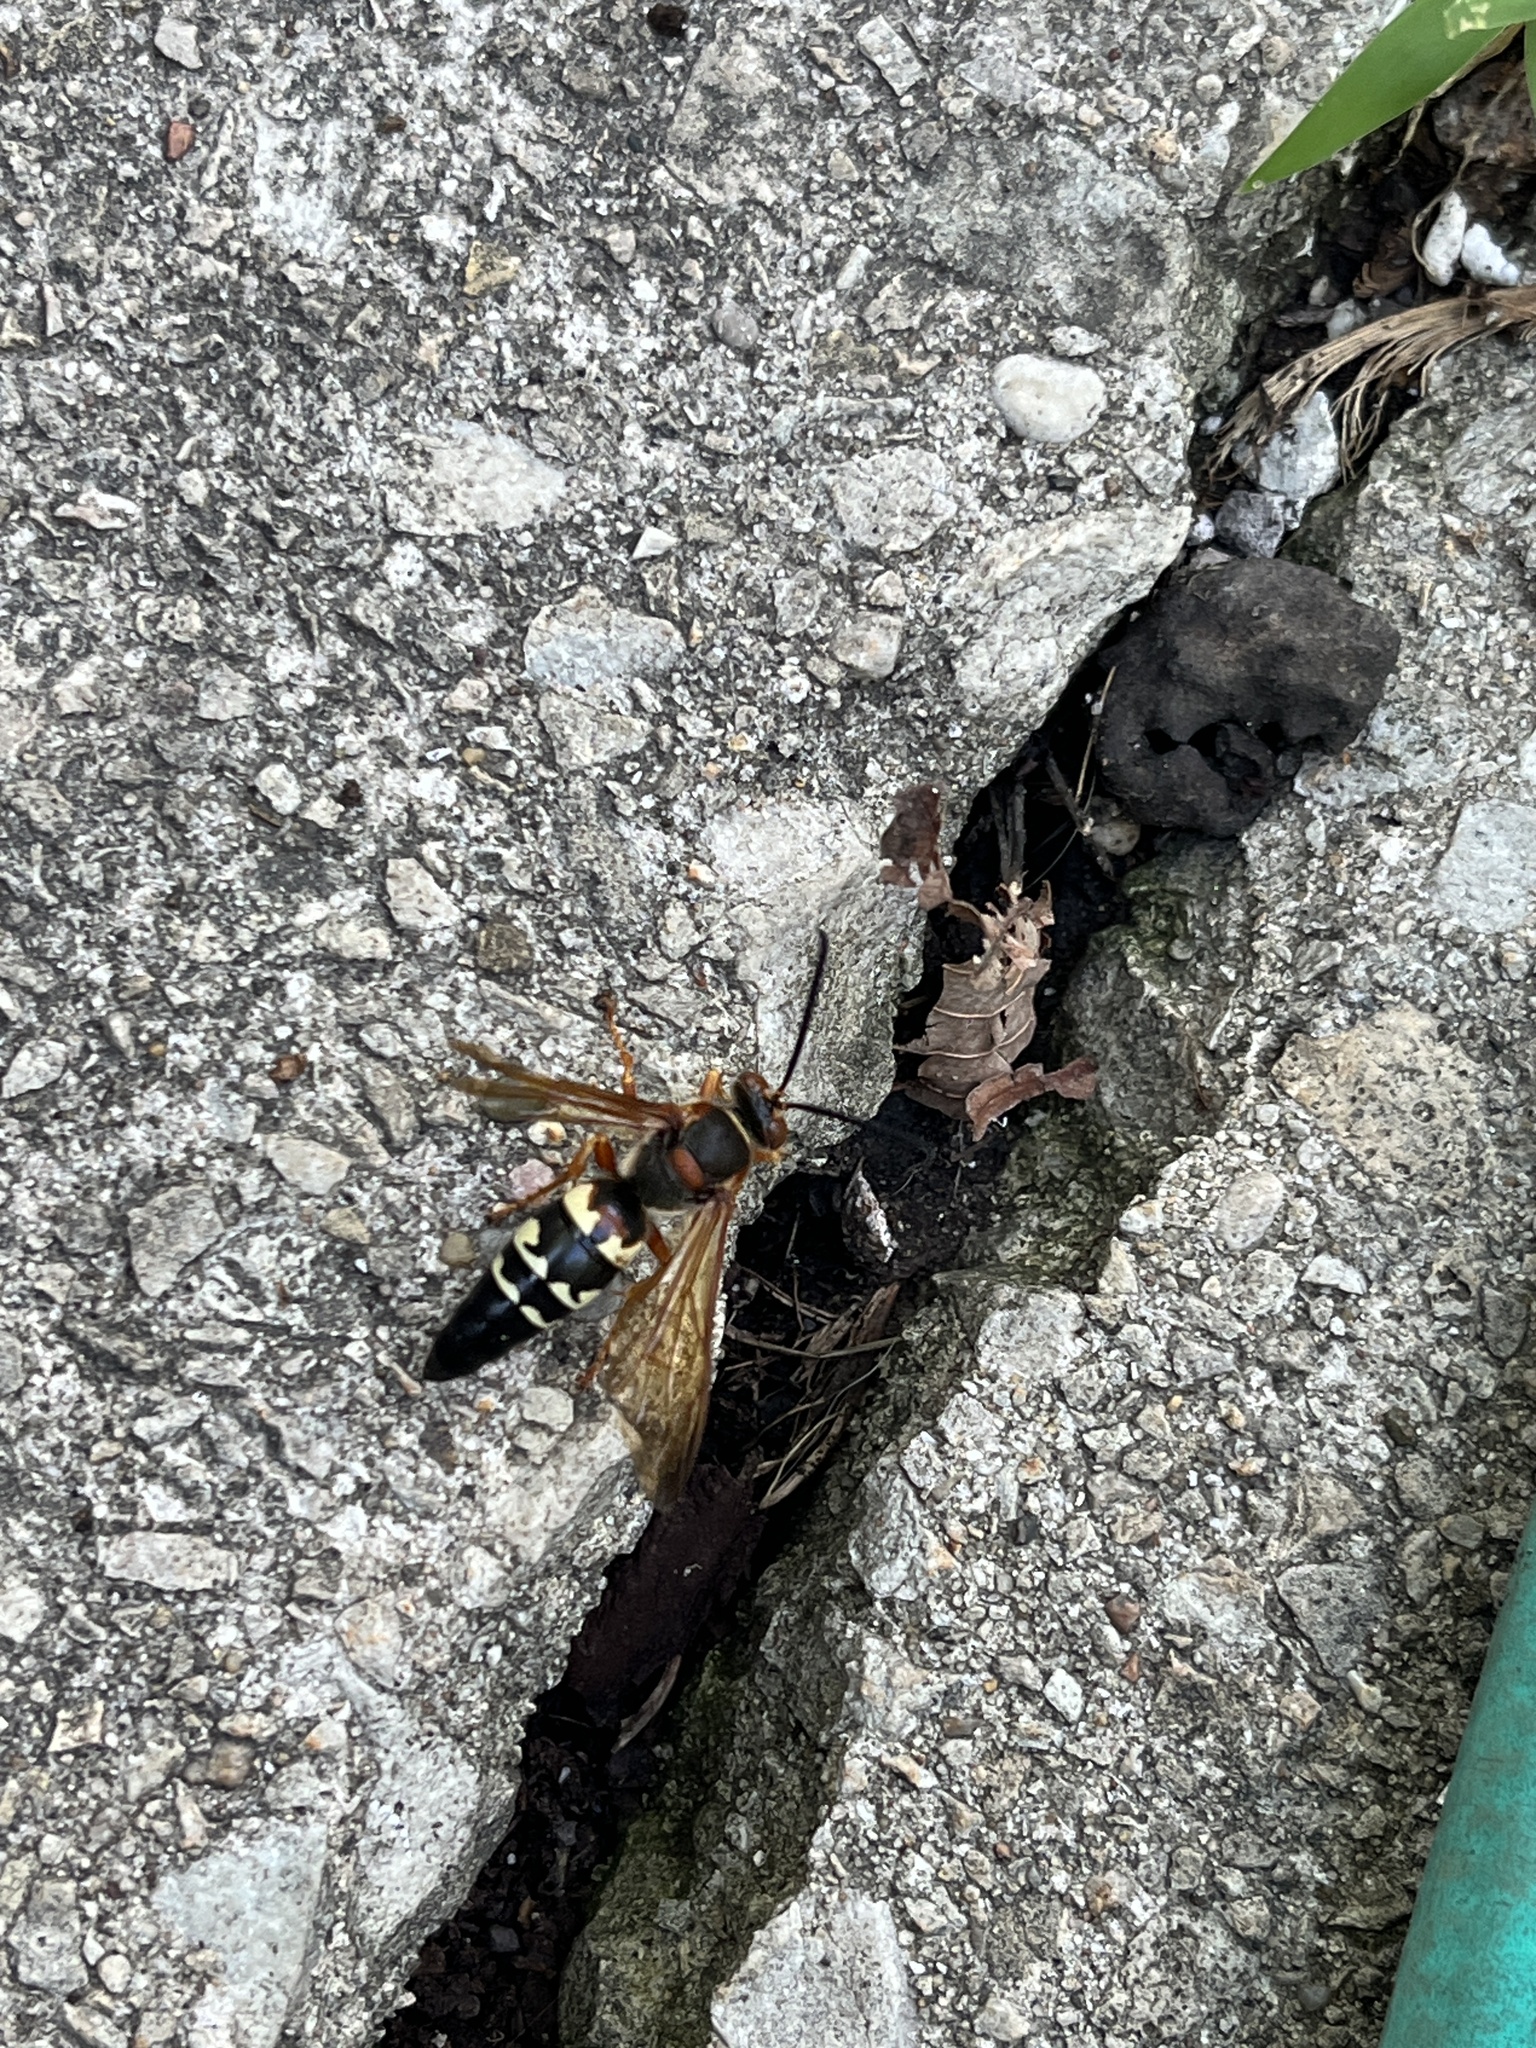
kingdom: Animalia
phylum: Arthropoda
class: Insecta
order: Hymenoptera
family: Crabronidae
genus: Sphecius
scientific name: Sphecius speciosus
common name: Cicada killer
